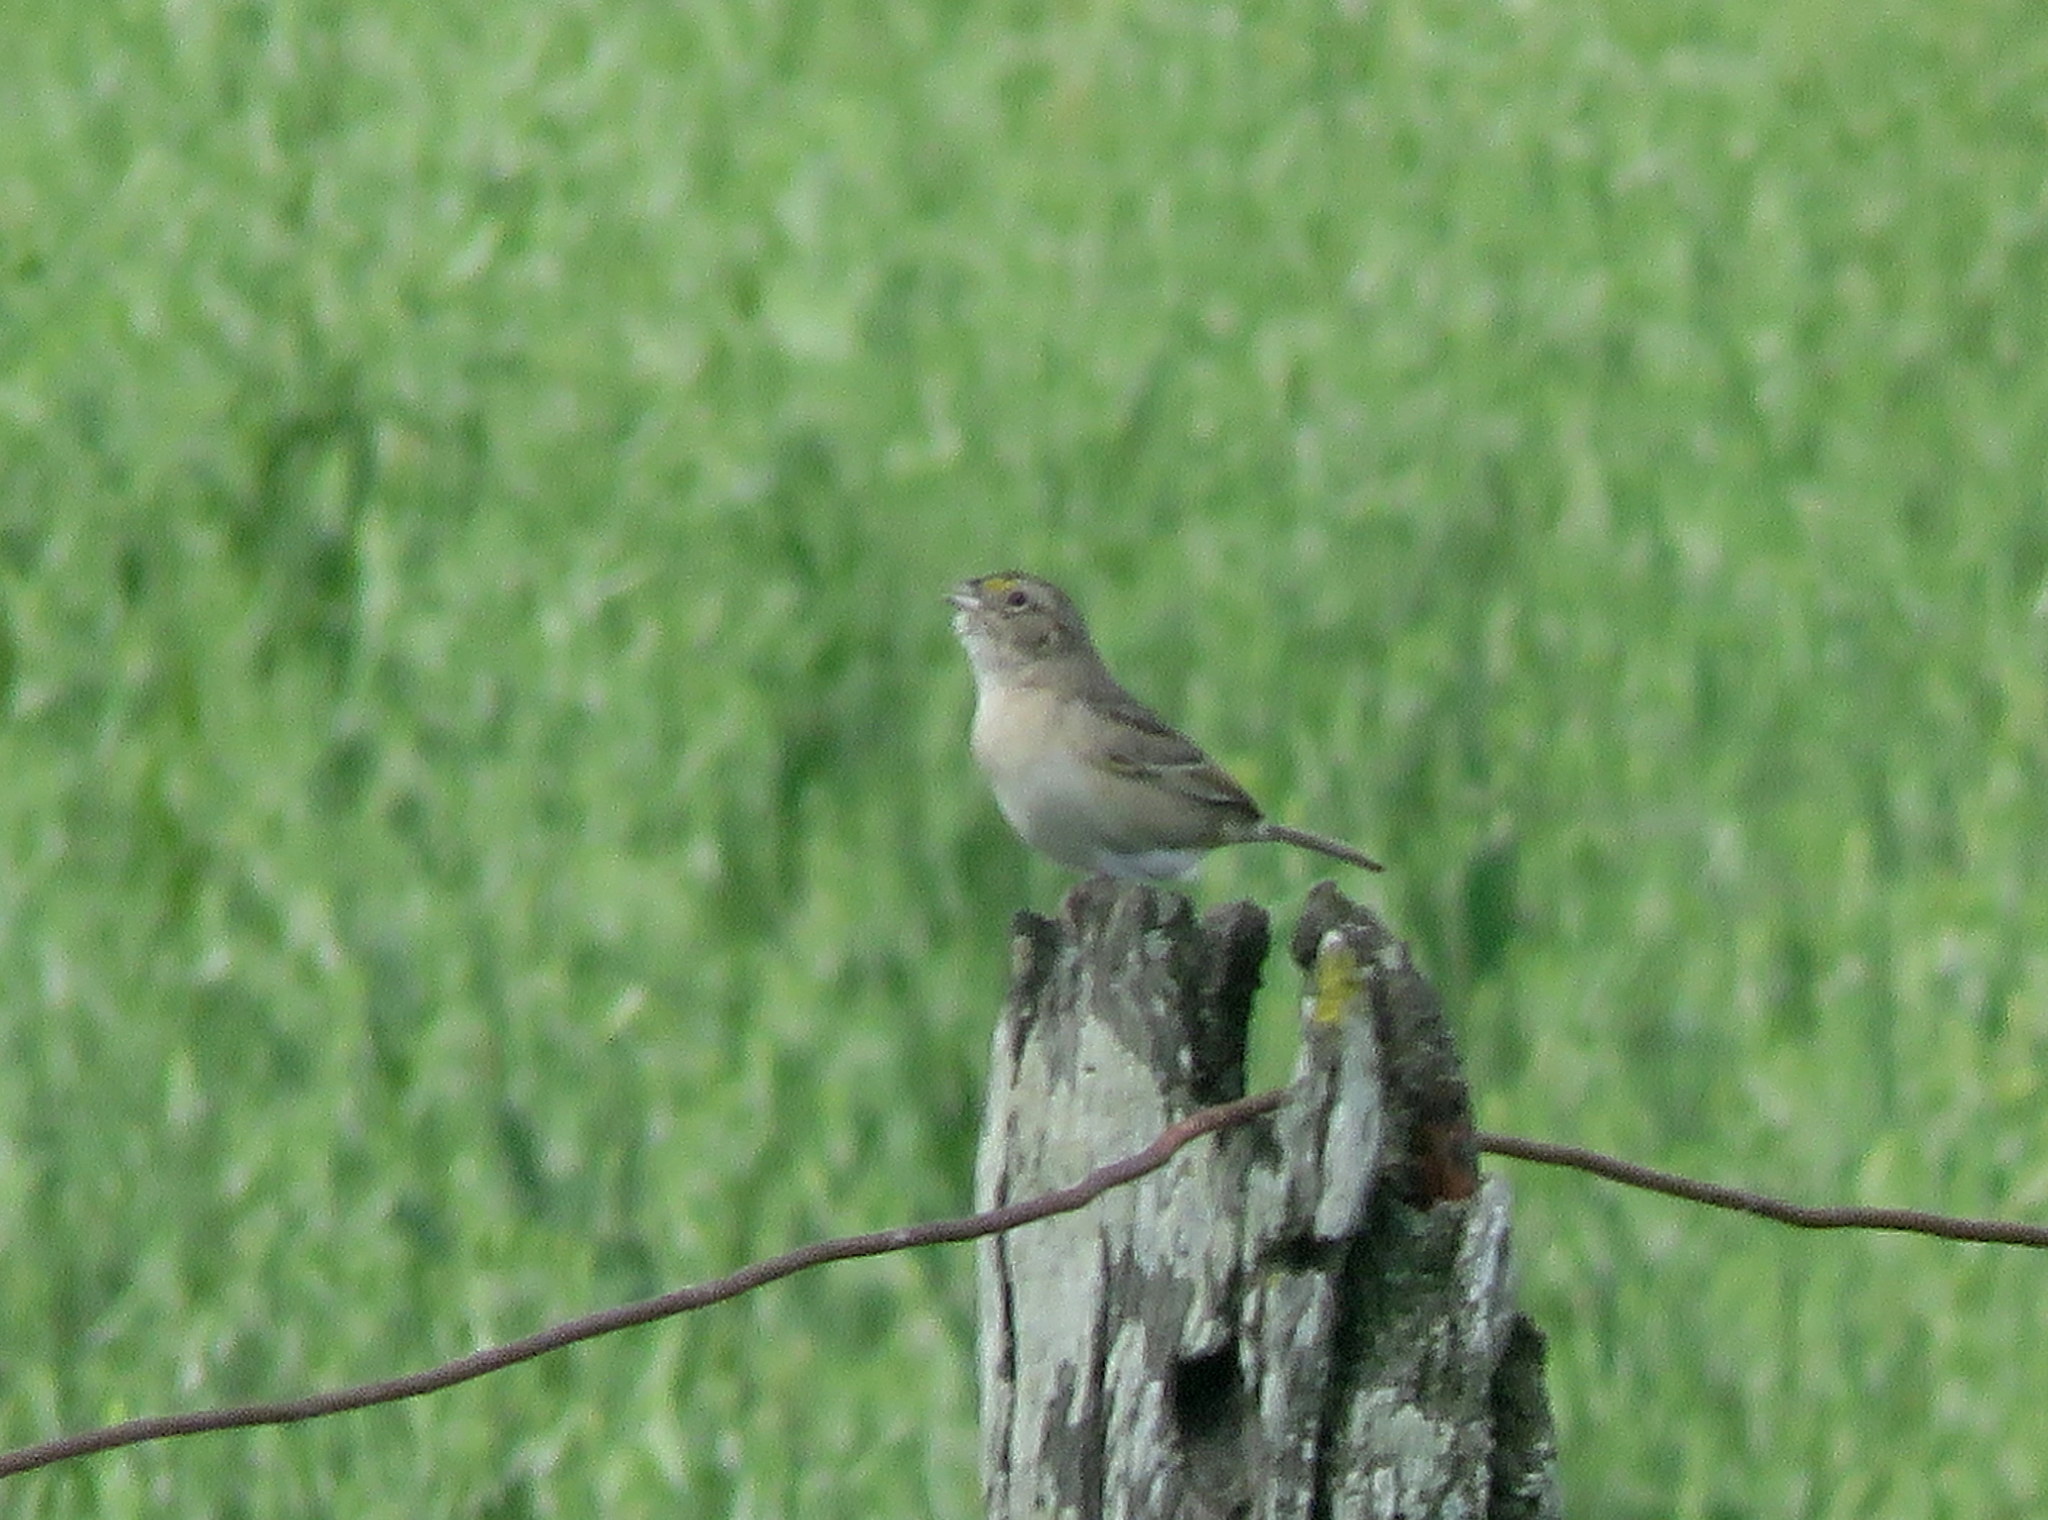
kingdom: Animalia
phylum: Chordata
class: Aves
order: Passeriformes
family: Passerellidae
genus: Ammodramus
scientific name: Ammodramus humeralis
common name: Grassland sparrow
